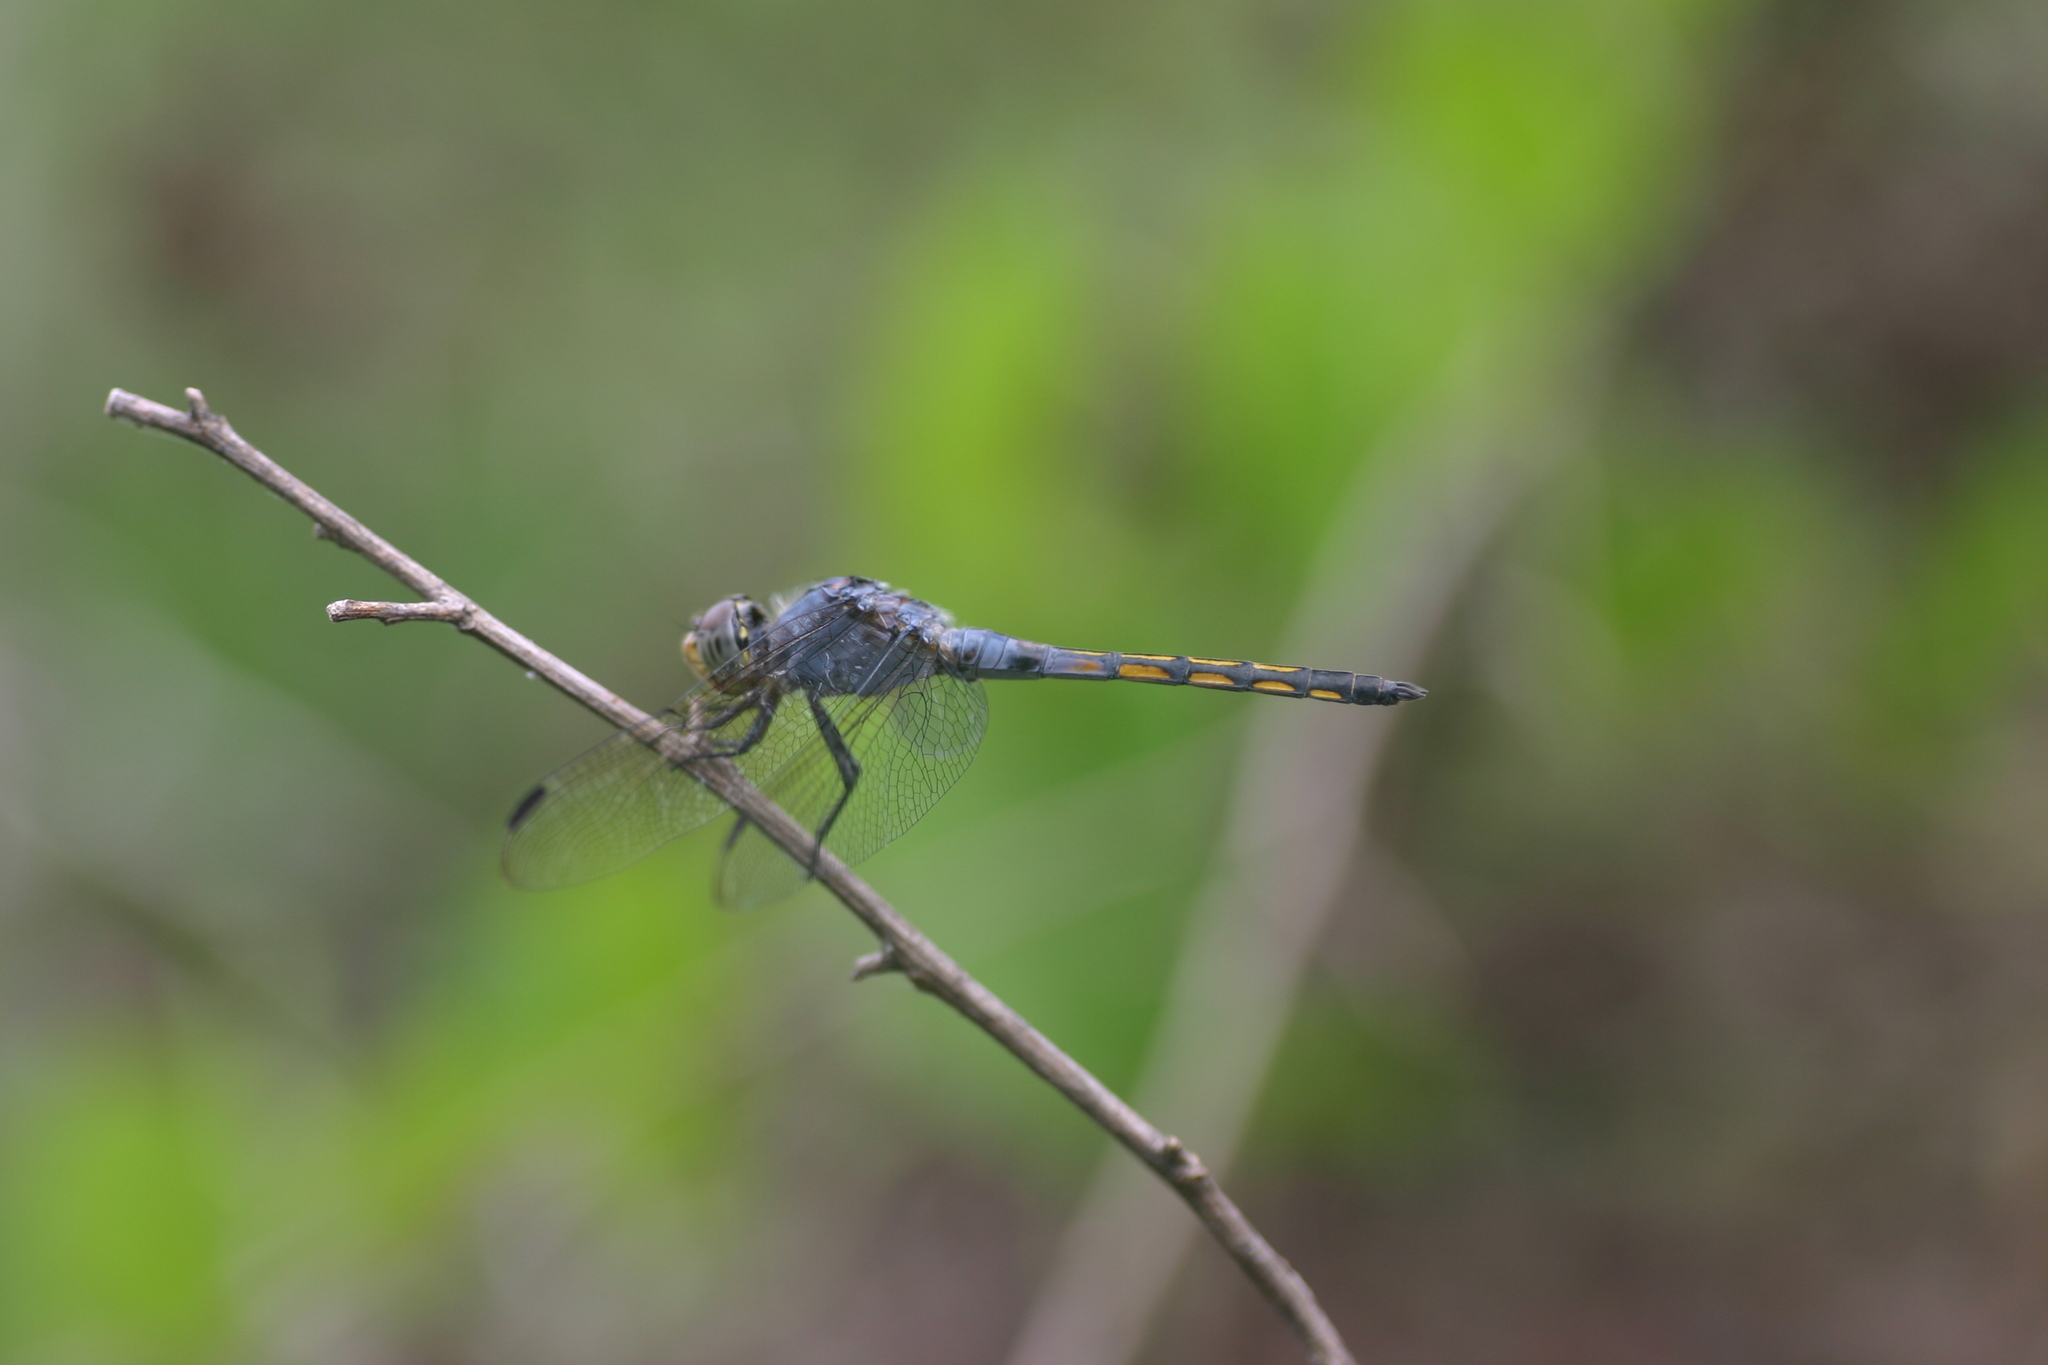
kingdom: Animalia
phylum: Arthropoda
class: Insecta
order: Odonata
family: Libellulidae
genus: Potamarcha
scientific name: Potamarcha congener
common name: Blue chaser
